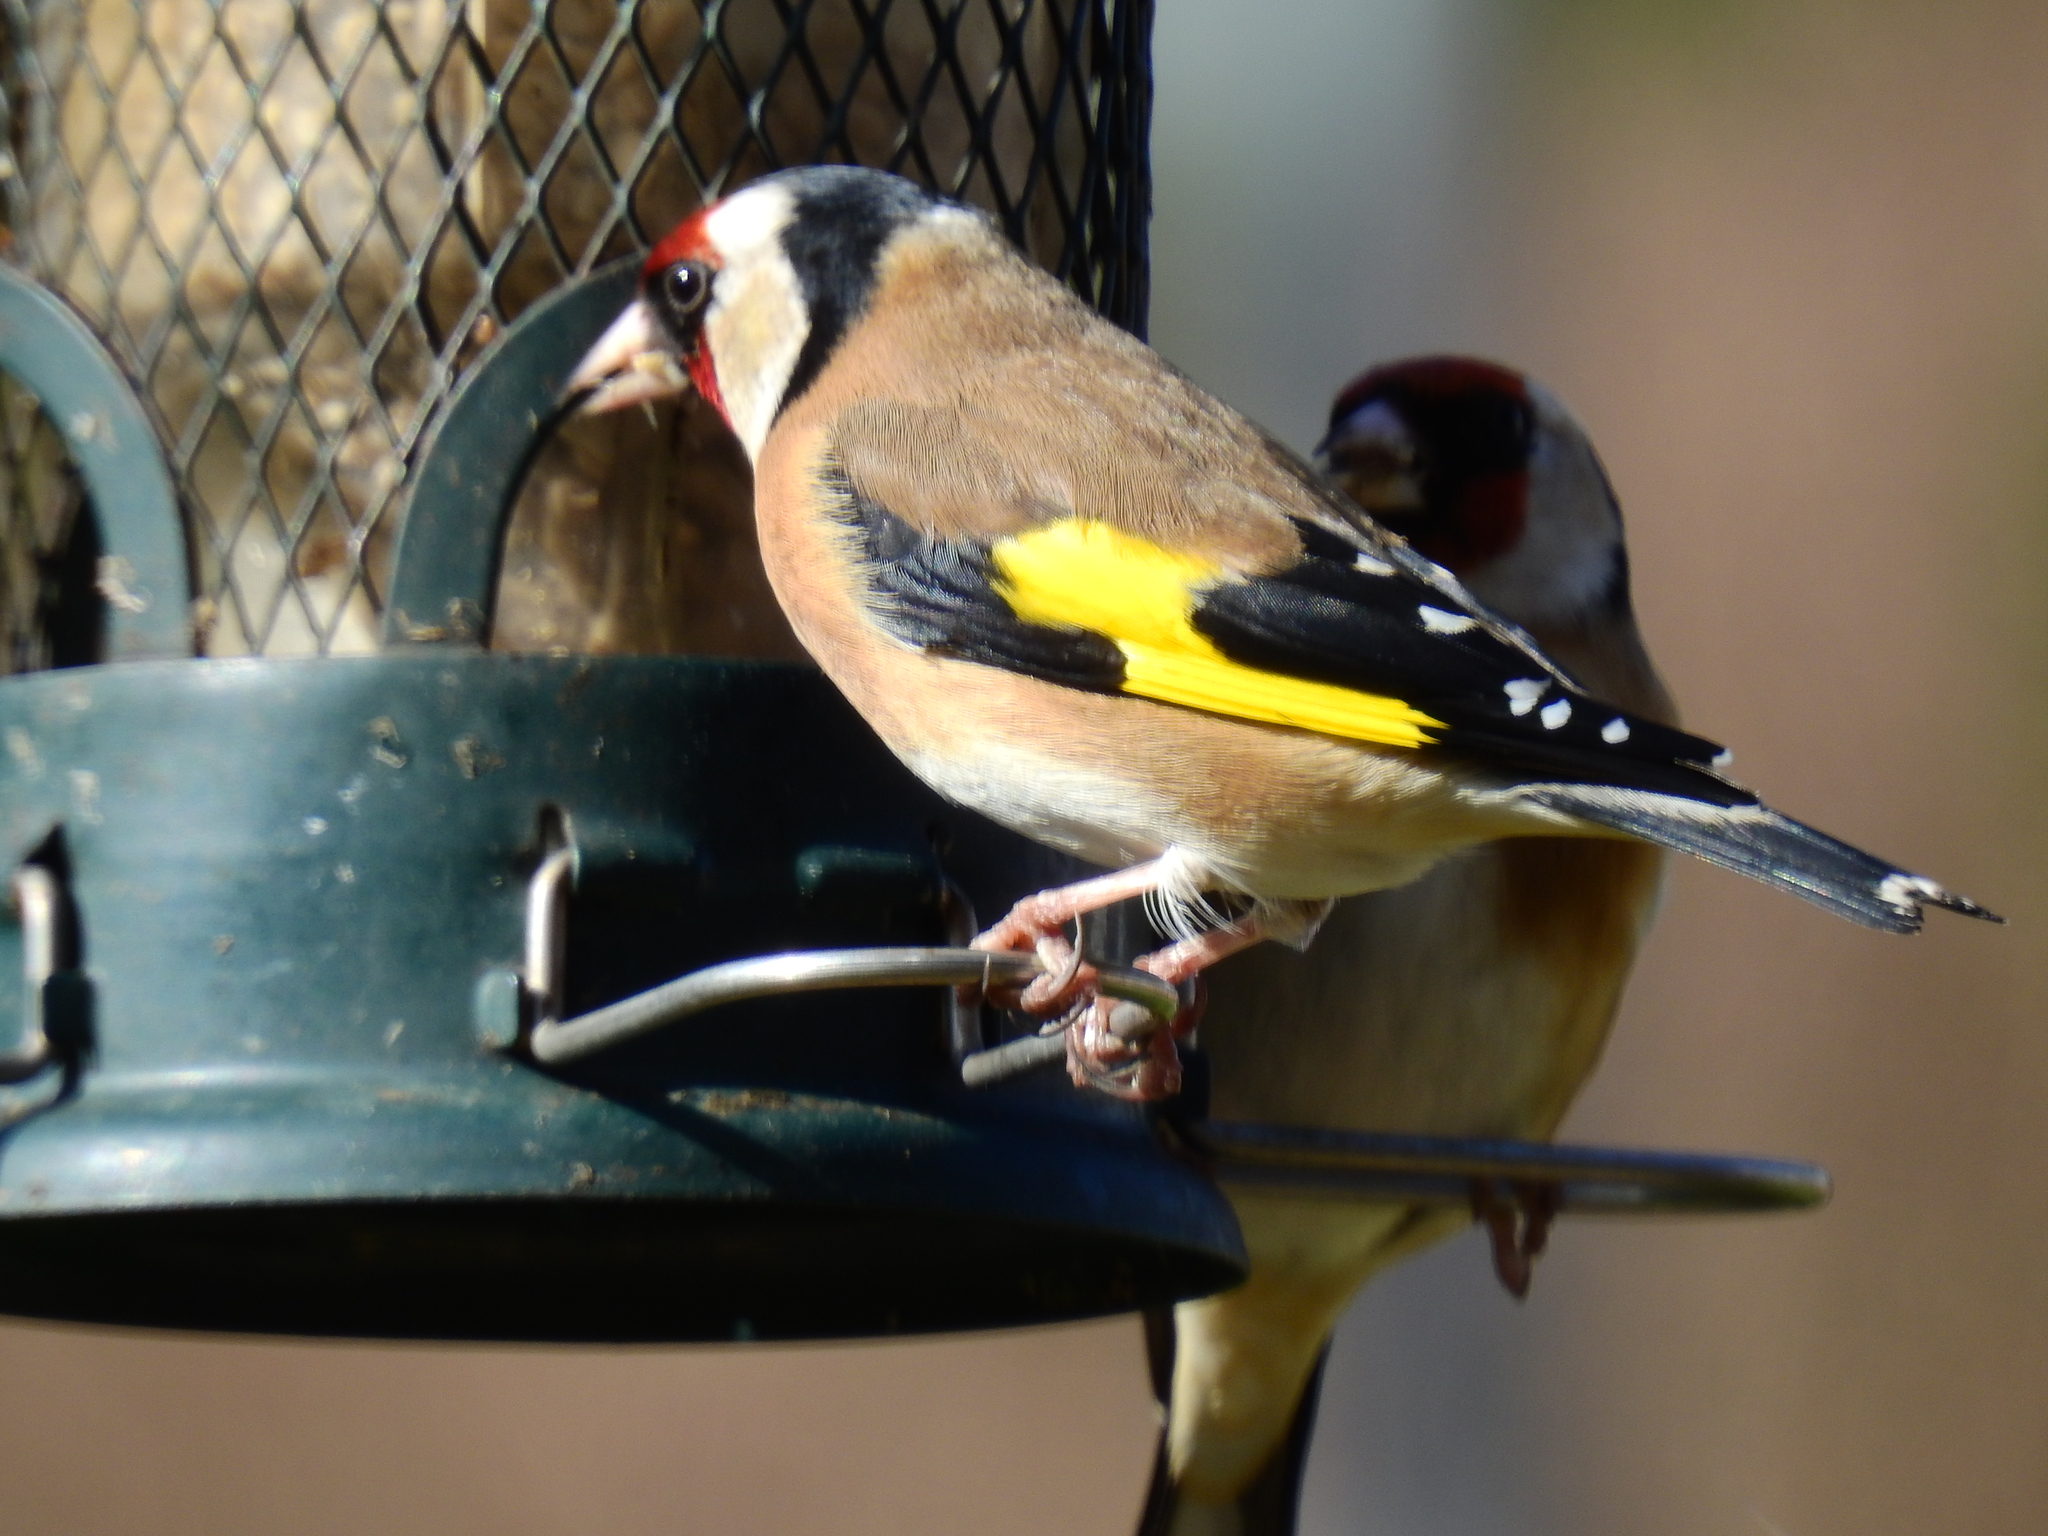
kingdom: Animalia
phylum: Chordata
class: Aves
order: Passeriformes
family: Fringillidae
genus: Carduelis
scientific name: Carduelis carduelis
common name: European goldfinch
